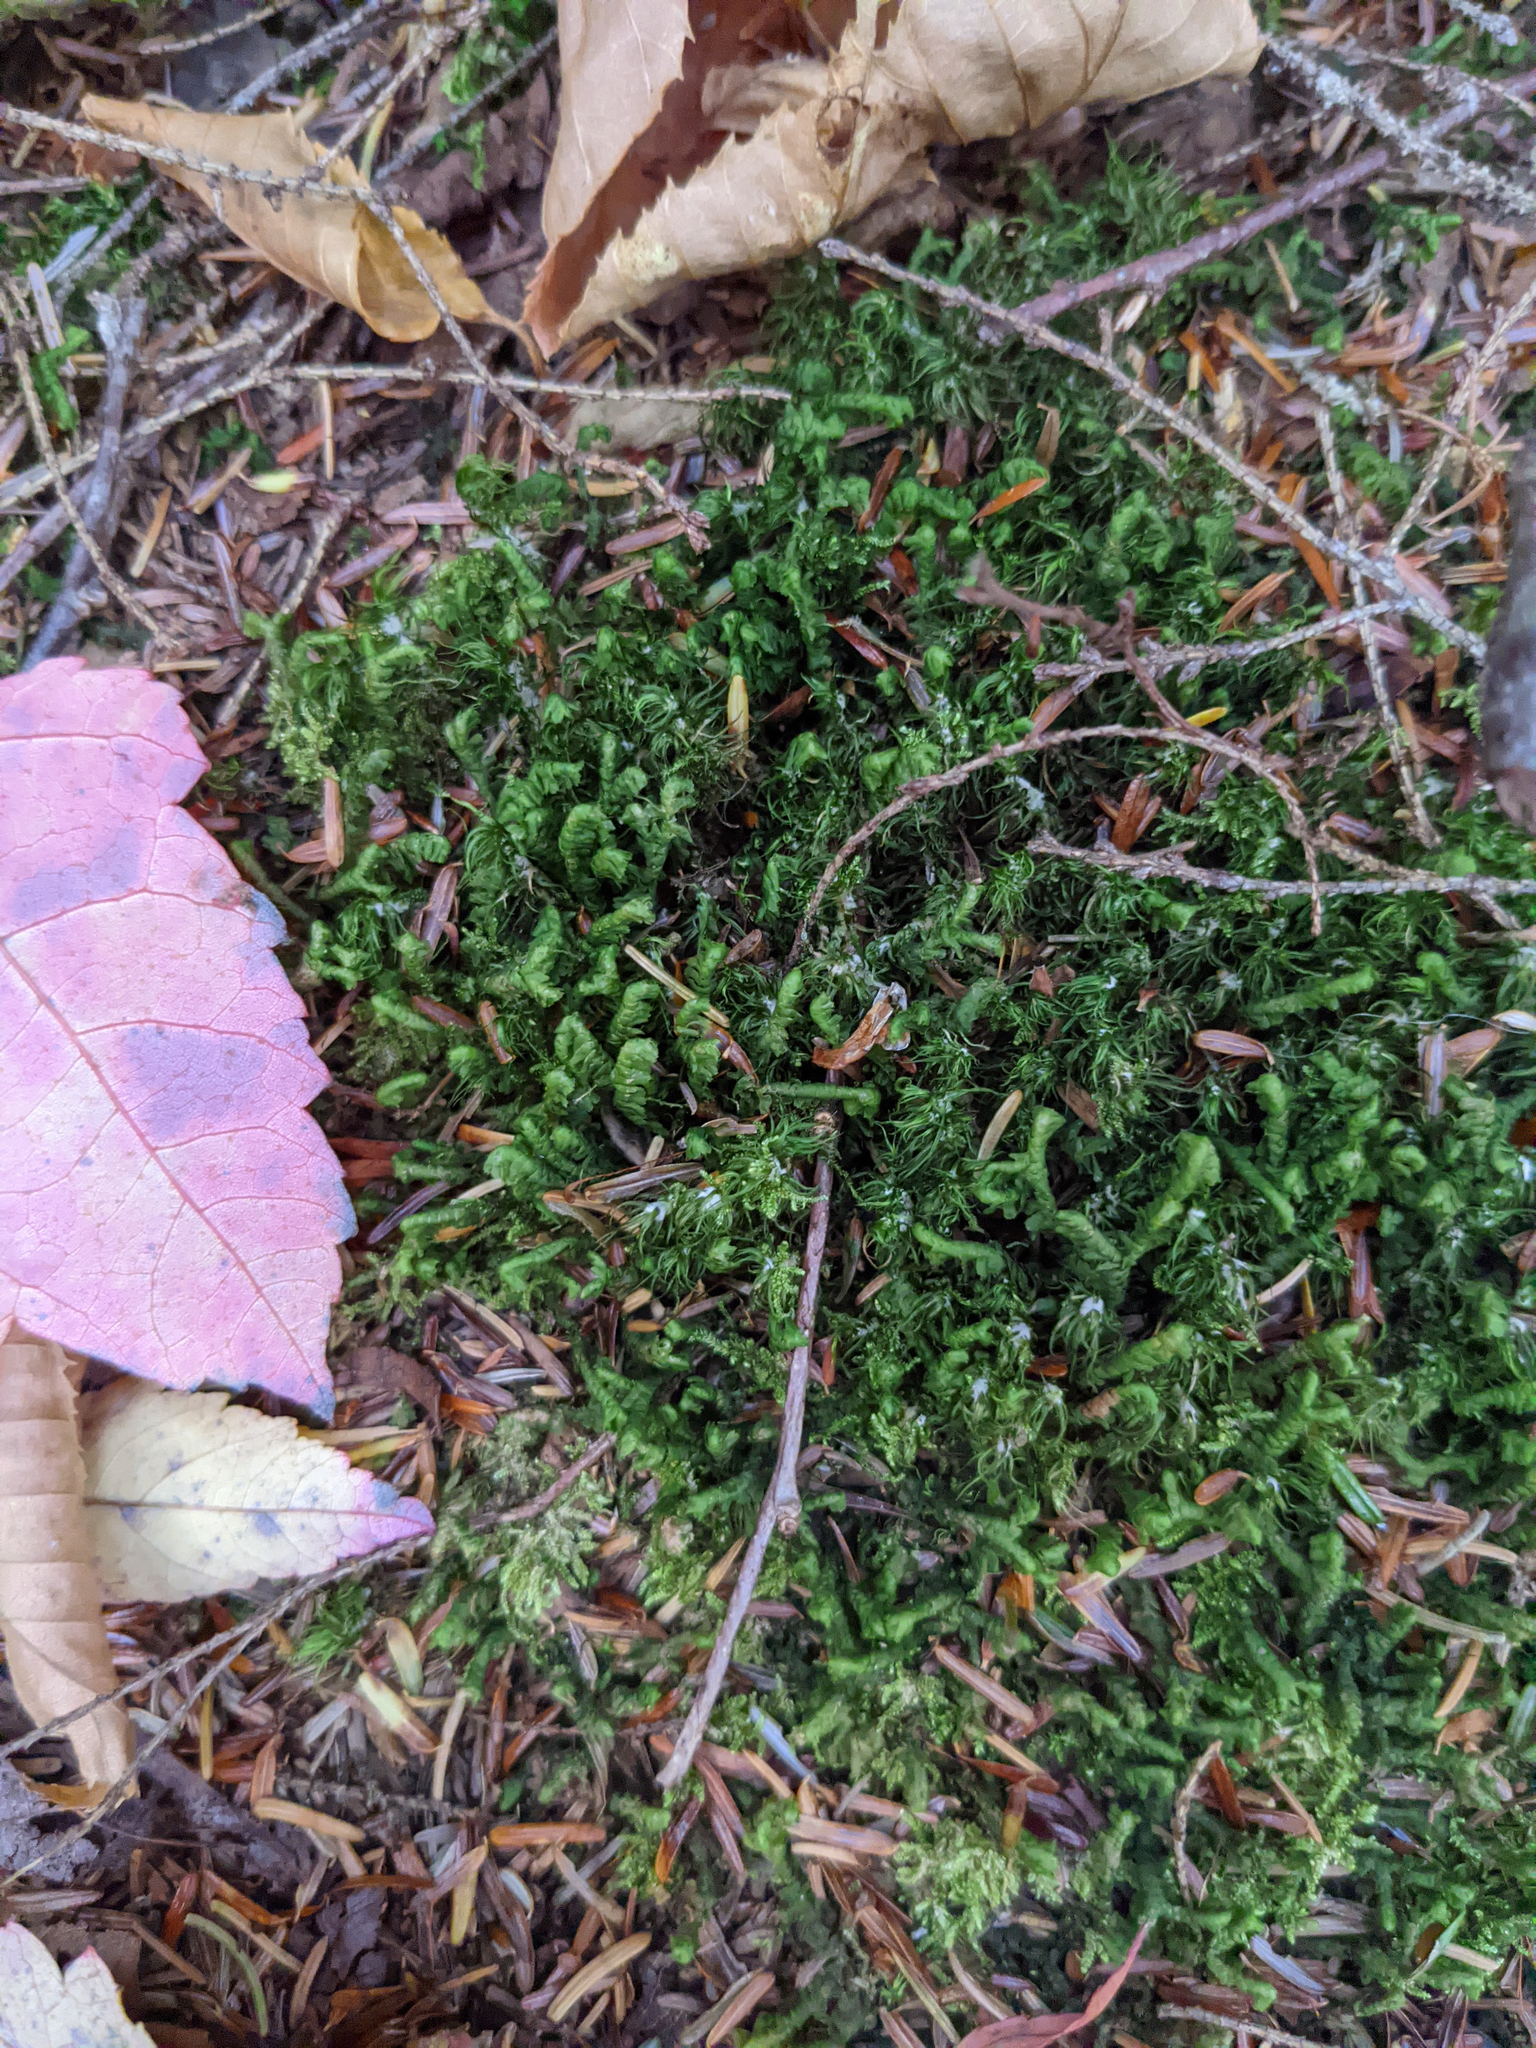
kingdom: Plantae
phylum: Marchantiophyta
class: Jungermanniopsida
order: Jungermanniales
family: Lepidoziaceae
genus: Bazzania
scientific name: Bazzania trilobata
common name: Three-lobed whipwort
